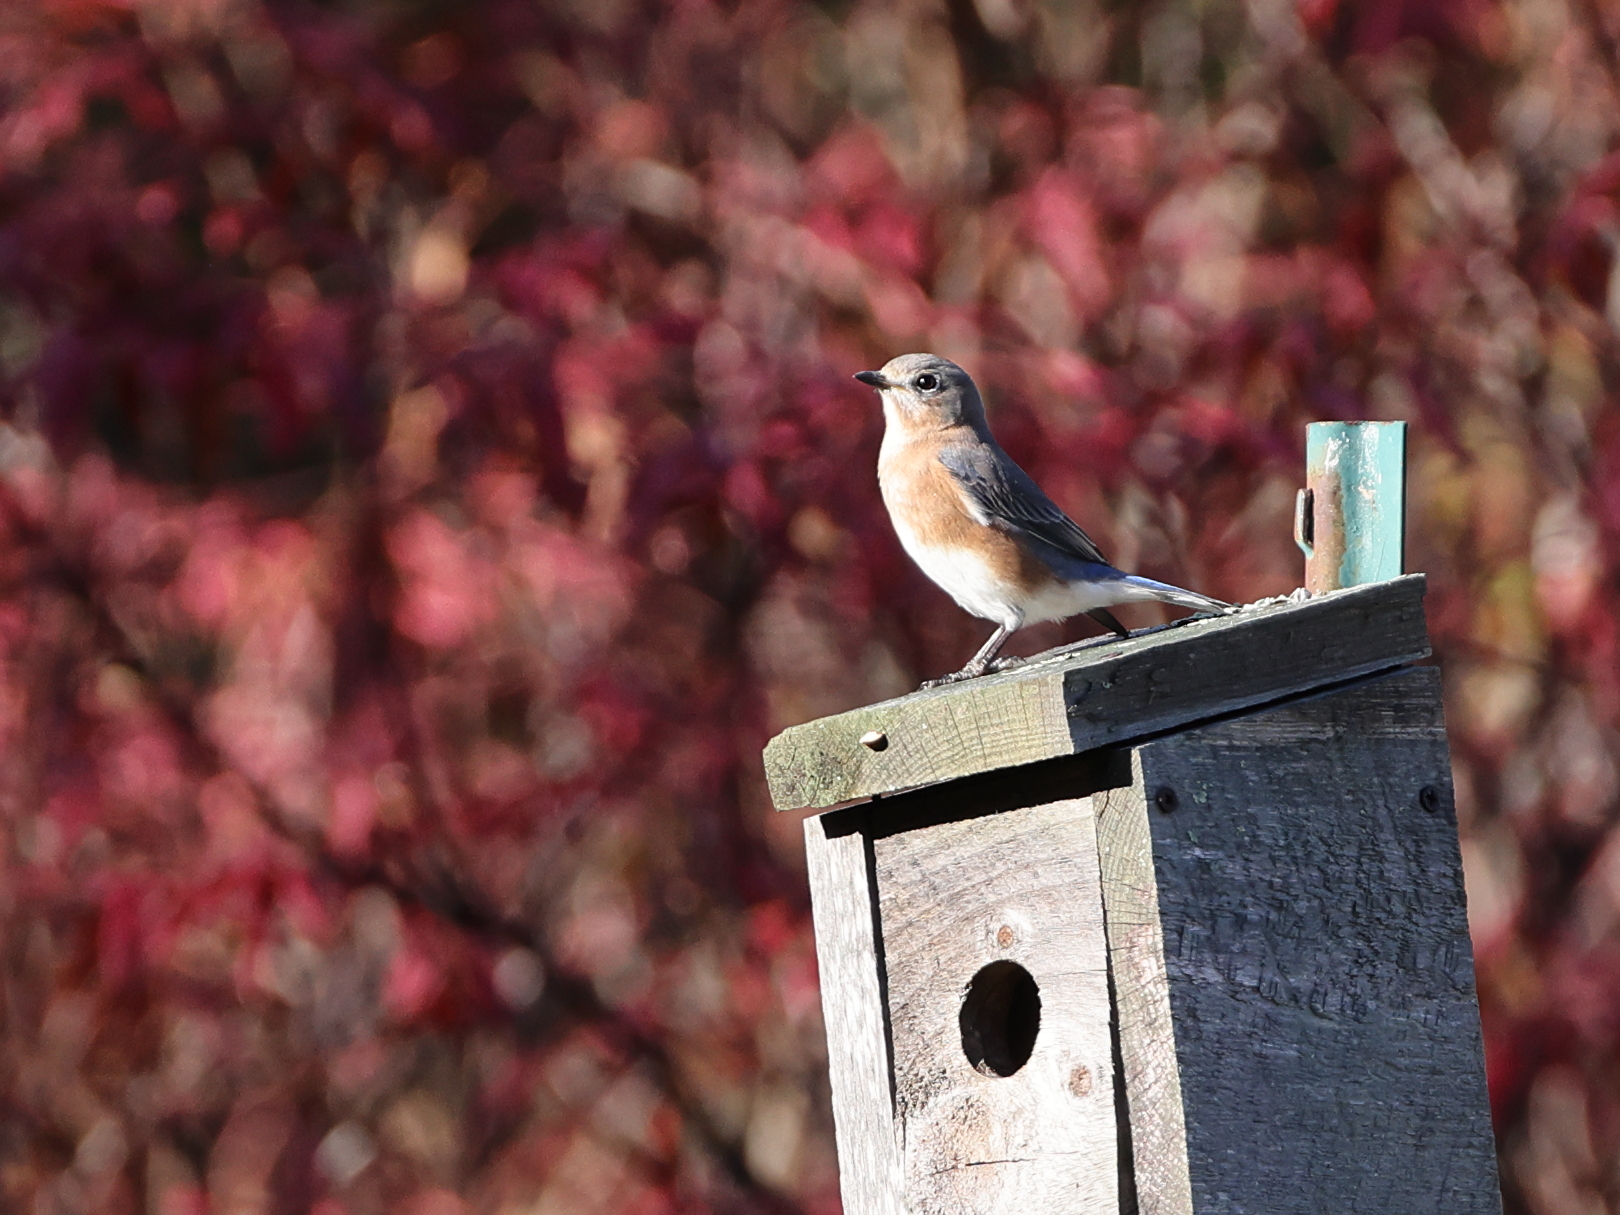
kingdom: Animalia
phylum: Chordata
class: Aves
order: Passeriformes
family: Turdidae
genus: Sialia
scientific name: Sialia sialis
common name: Eastern bluebird
